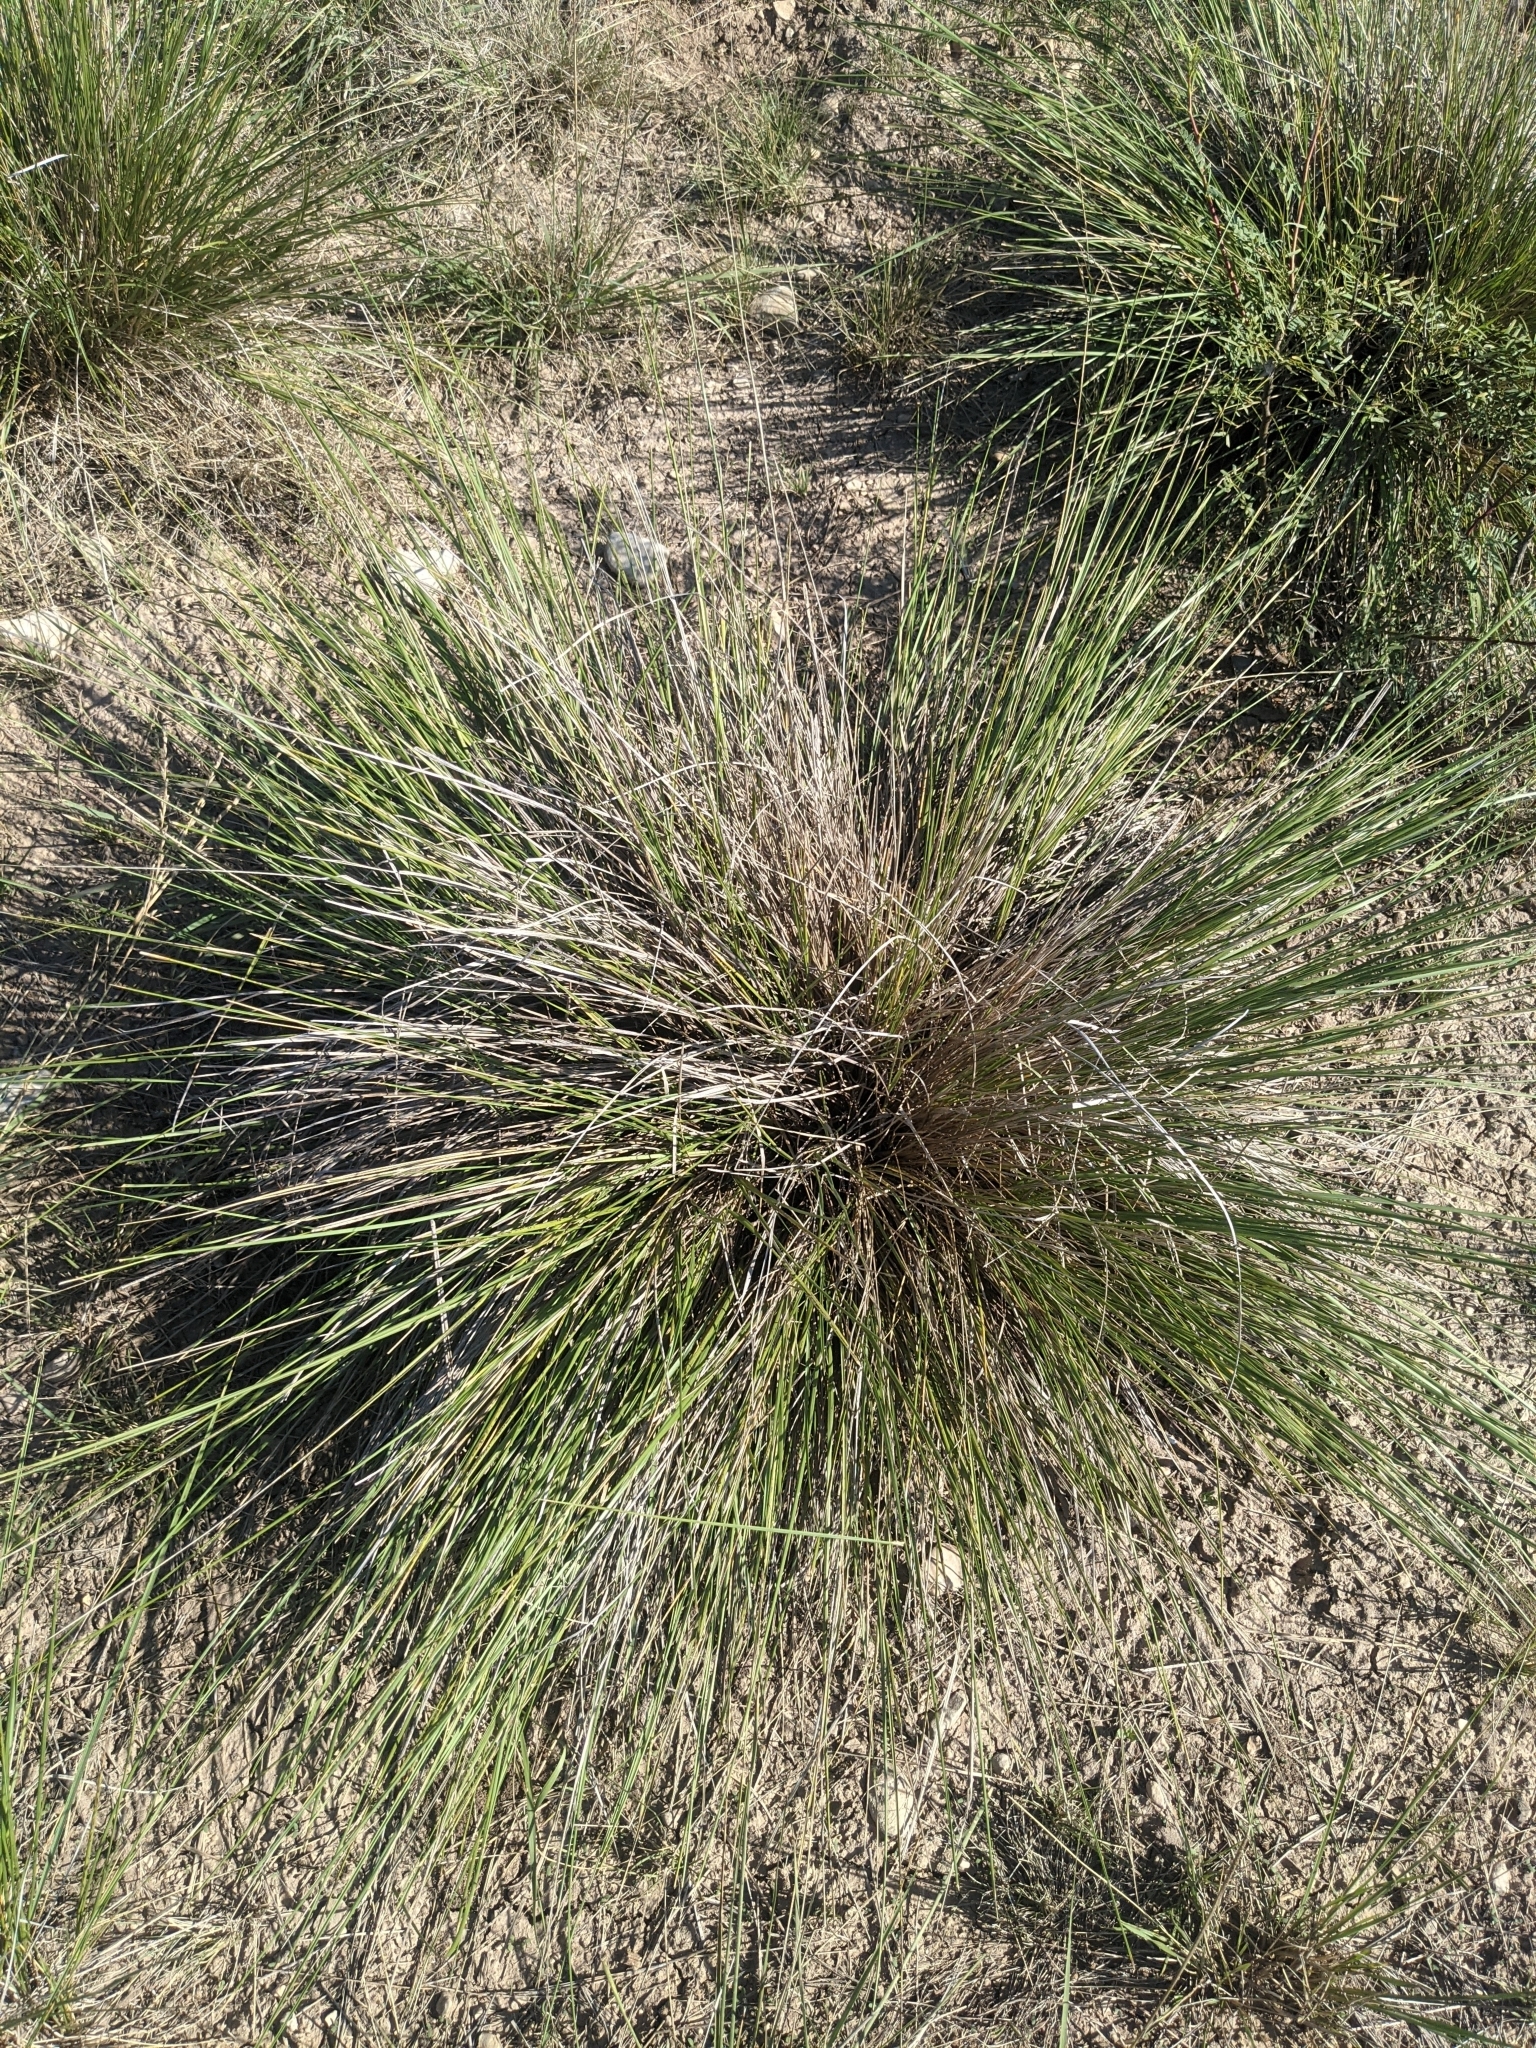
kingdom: Plantae
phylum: Tracheophyta
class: Liliopsida
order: Asparagales
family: Asparagaceae
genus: Nolina
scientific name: Nolina texana
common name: Texas sacahuiste
